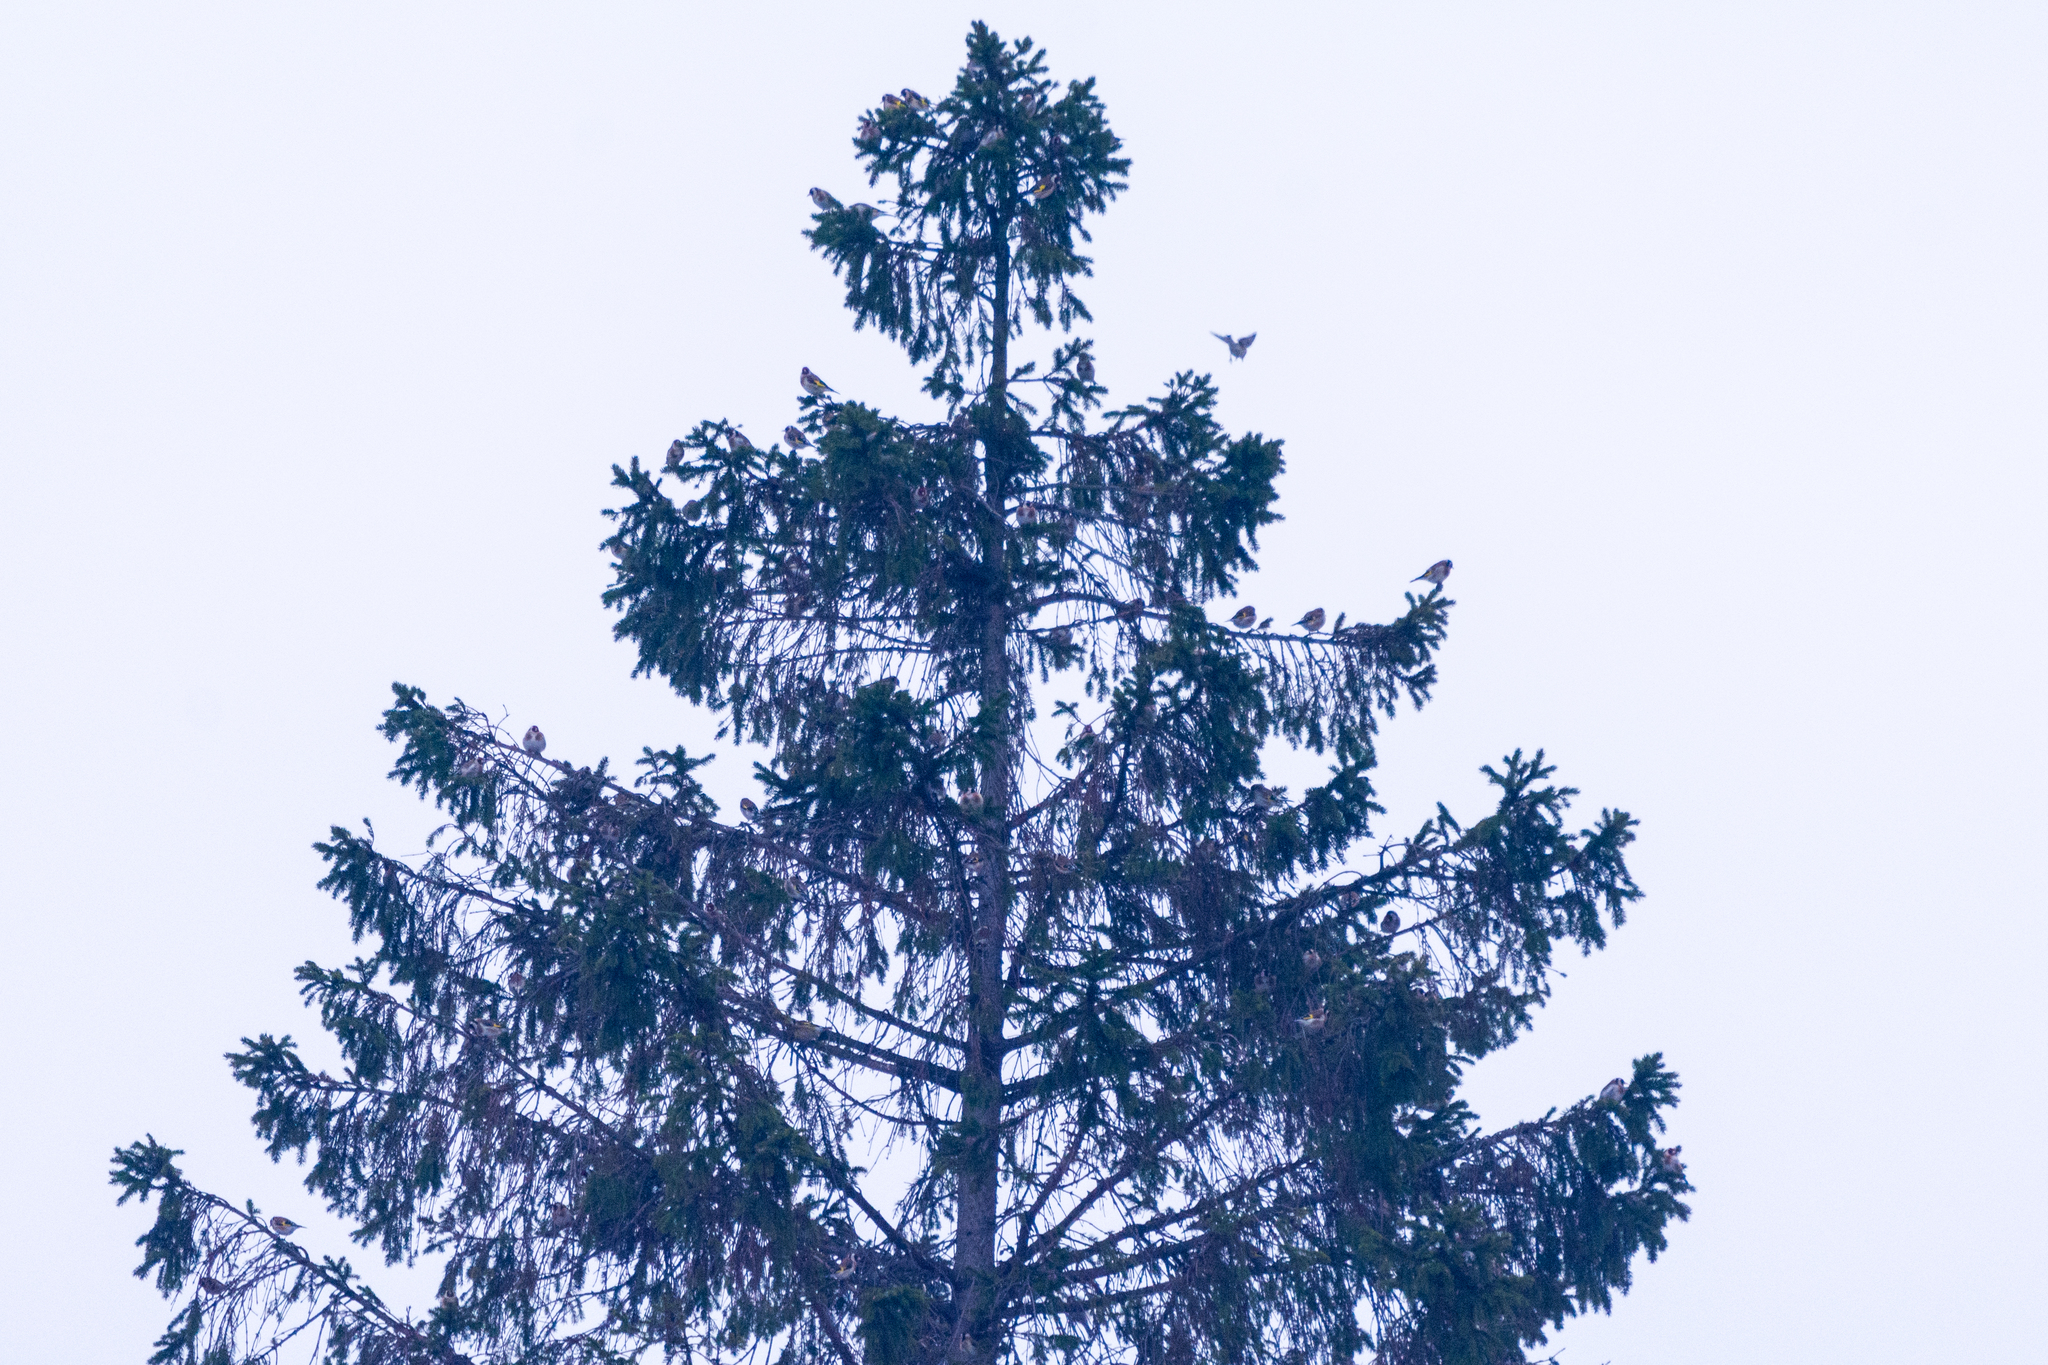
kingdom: Animalia
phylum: Chordata
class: Aves
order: Passeriformes
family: Fringillidae
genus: Carduelis
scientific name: Carduelis carduelis
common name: European goldfinch
